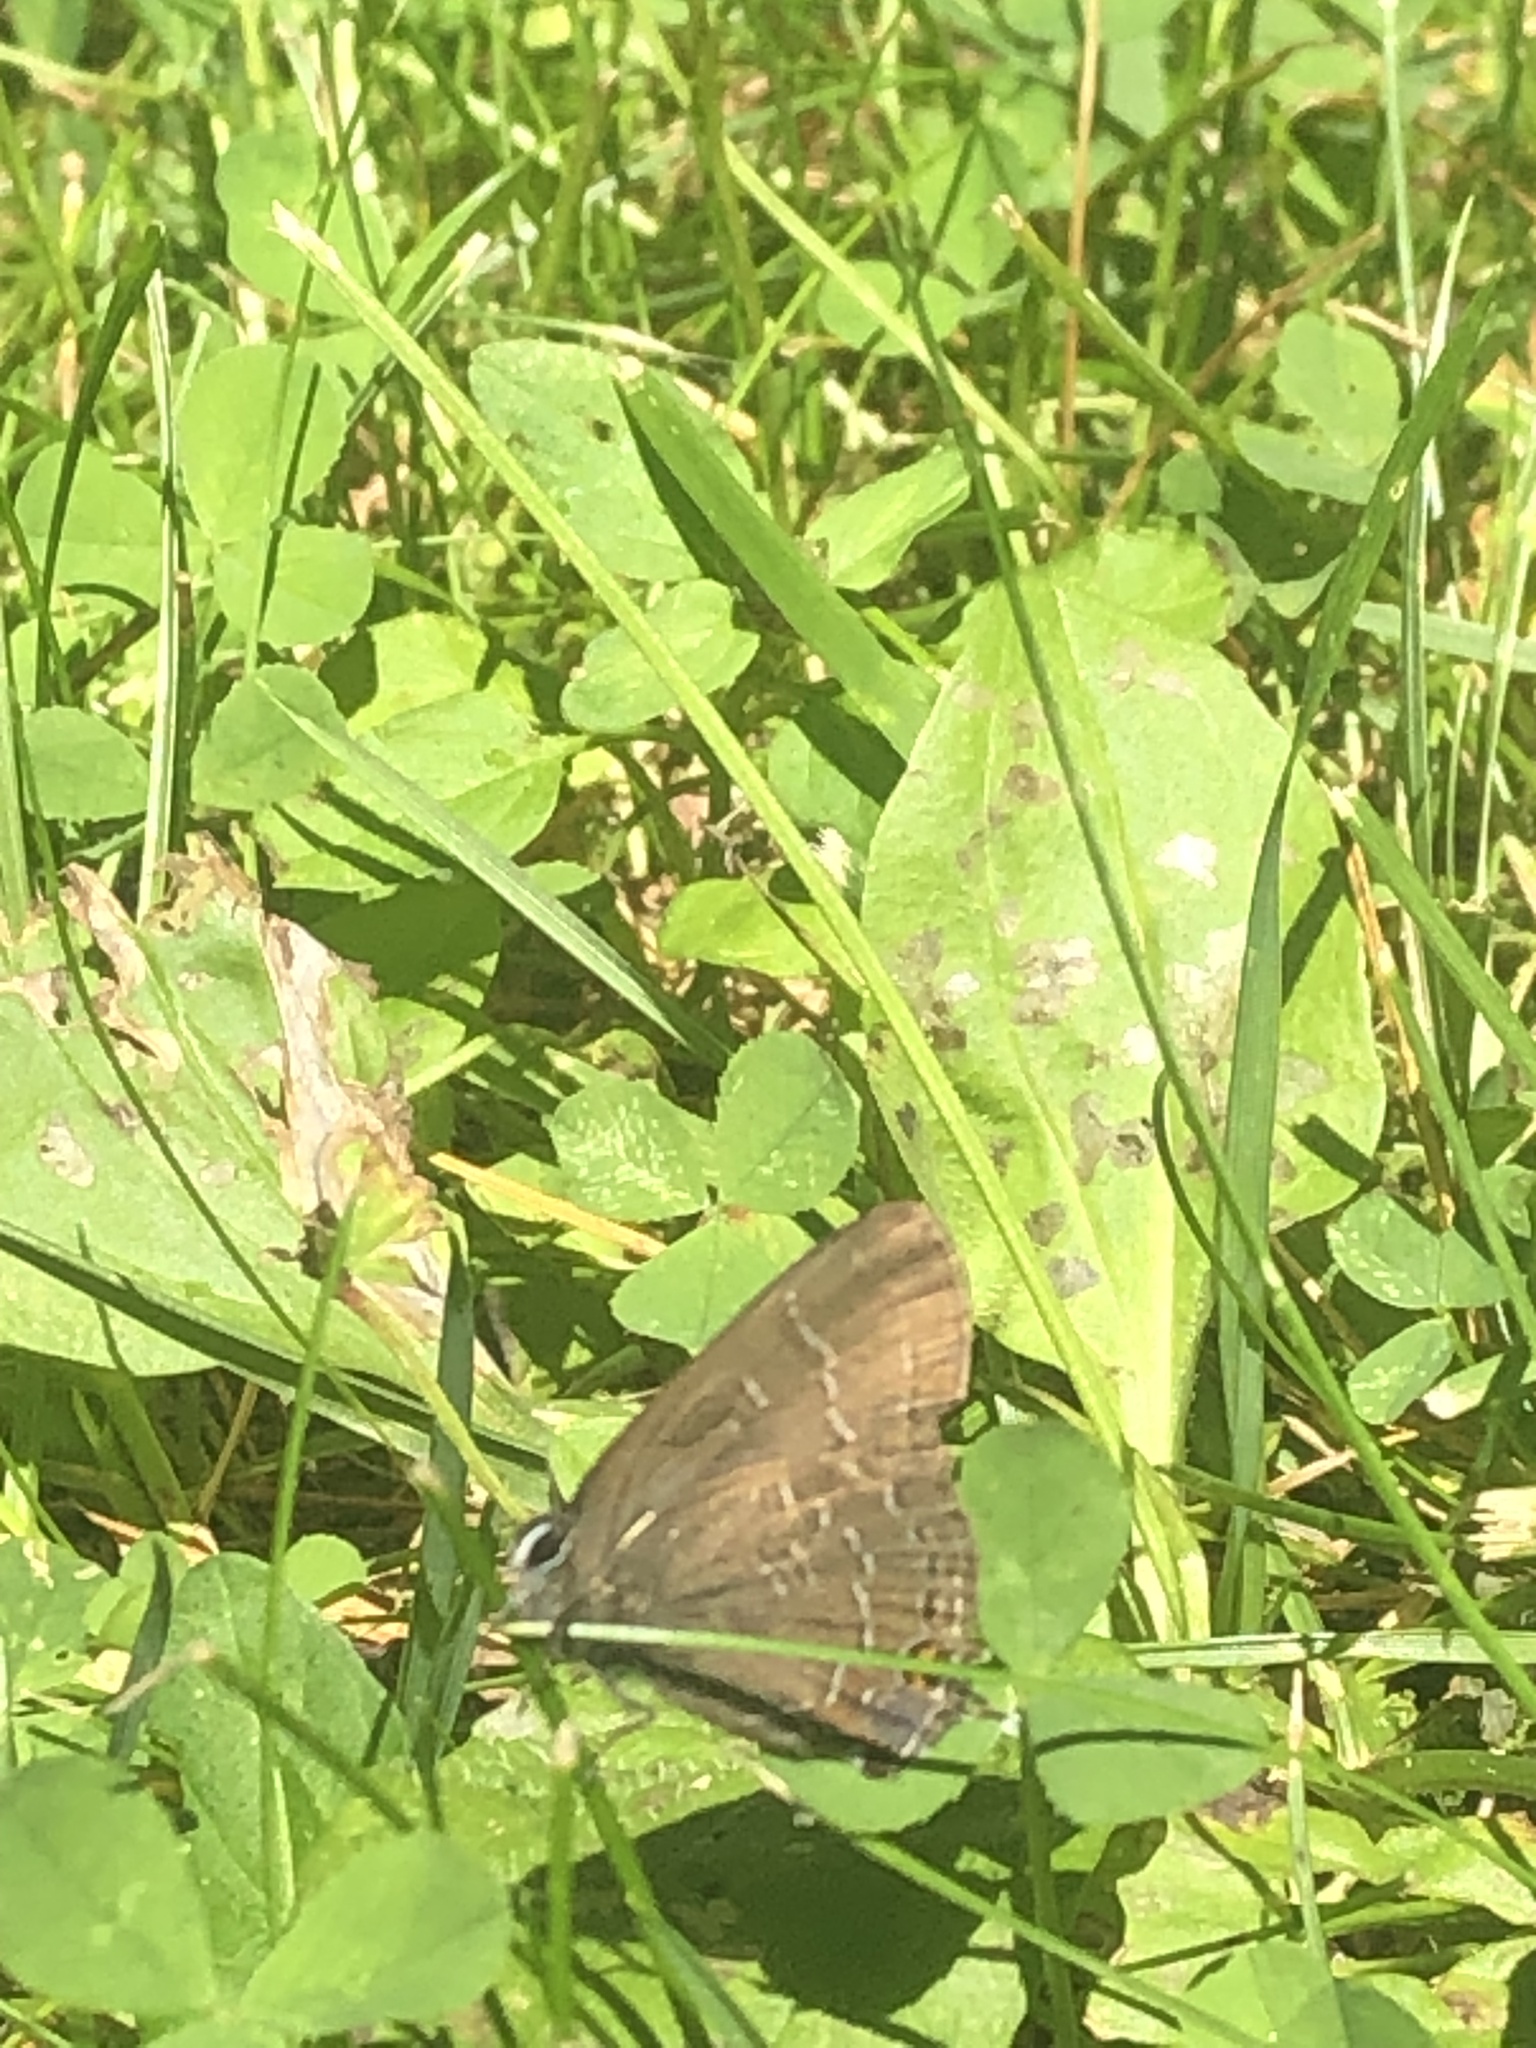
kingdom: Animalia
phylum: Arthropoda
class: Insecta
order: Lepidoptera
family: Lycaenidae
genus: Satyrium
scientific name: Satyrium calanus
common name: Banded hairstreak
